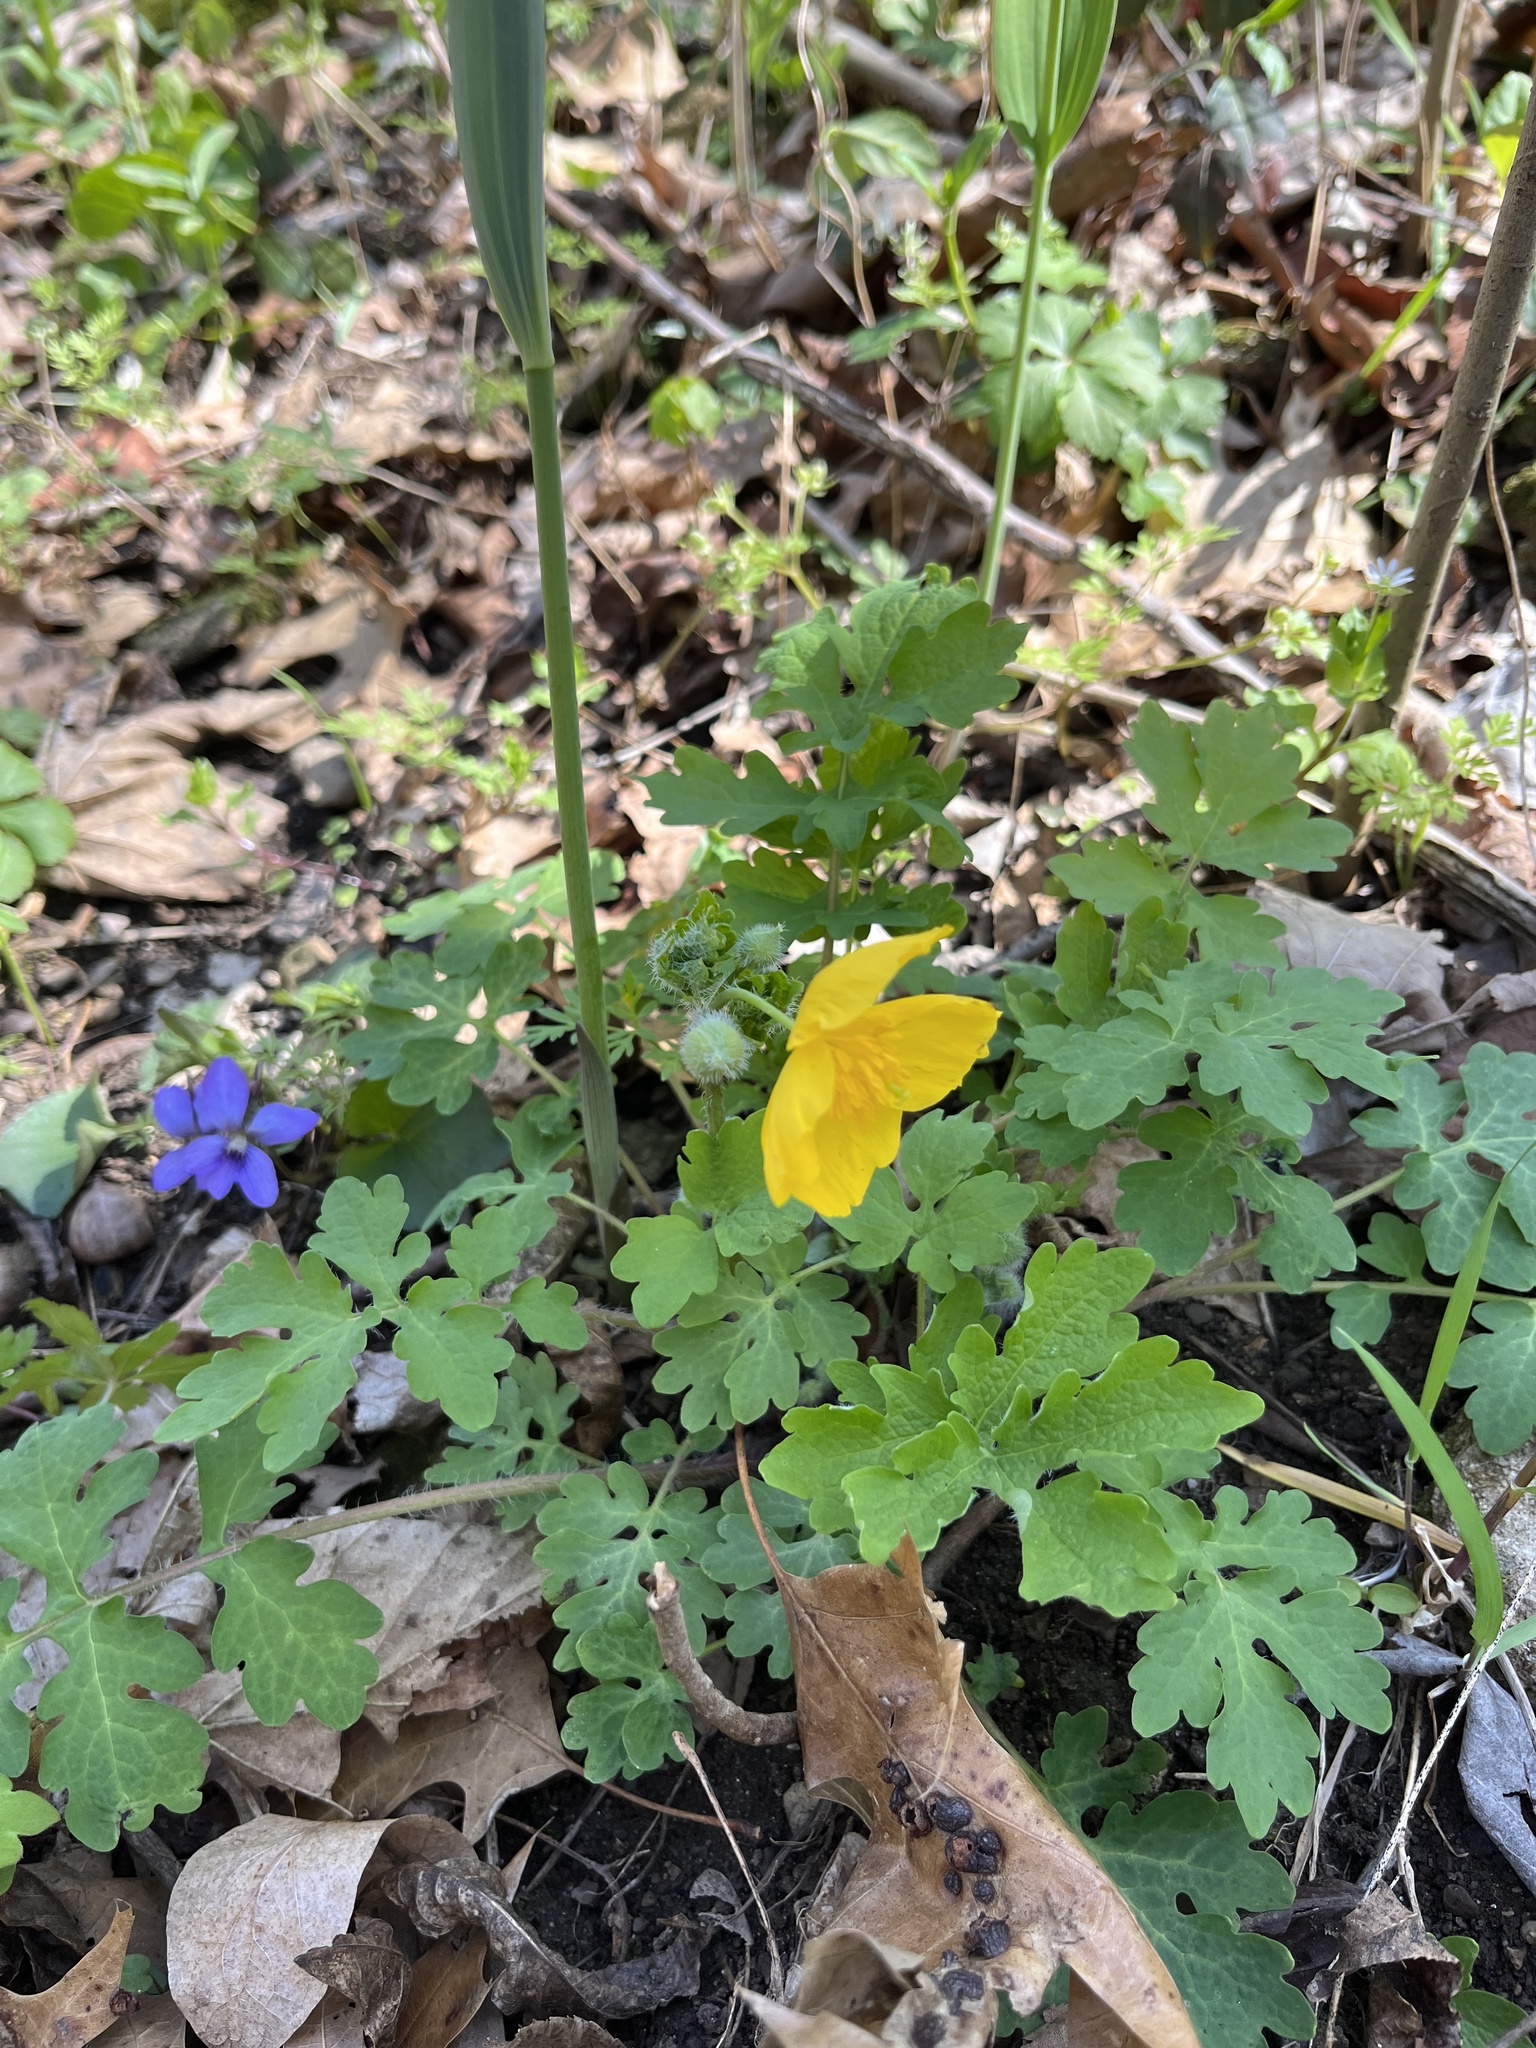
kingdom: Plantae
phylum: Tracheophyta
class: Magnoliopsida
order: Ranunculales
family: Papaveraceae
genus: Stylophorum
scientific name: Stylophorum diphyllum
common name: Celandine poppy
